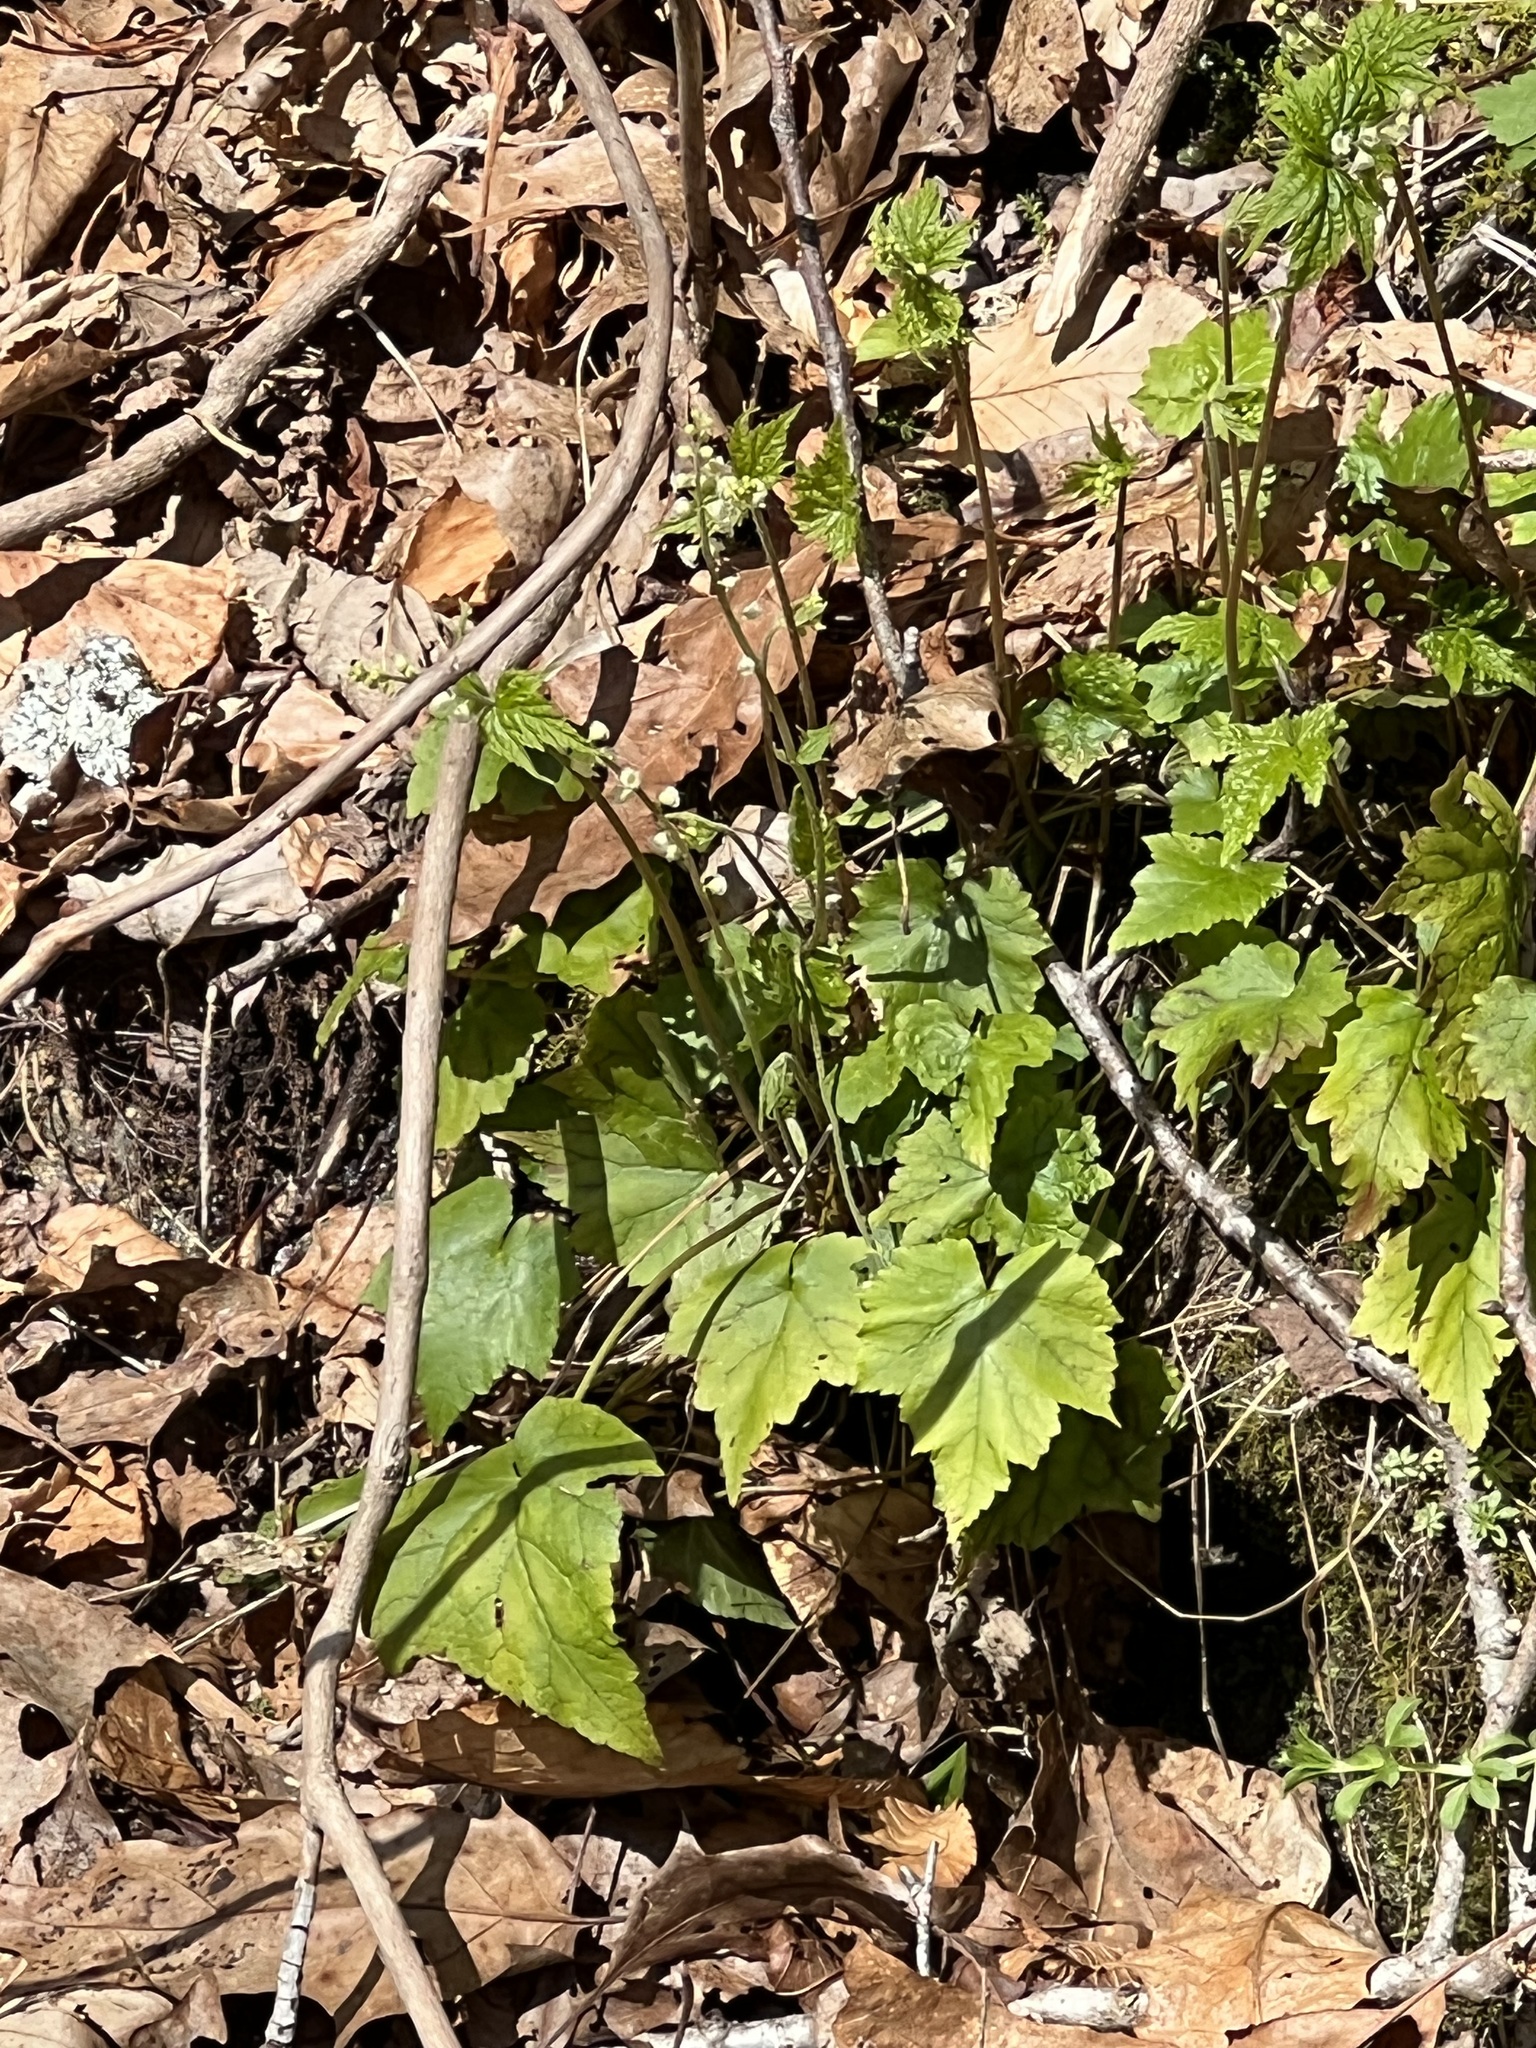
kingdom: Plantae
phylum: Tracheophyta
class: Magnoliopsida
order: Saxifragales
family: Saxifragaceae
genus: Mitella
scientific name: Mitella diphylla
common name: Coolwort
